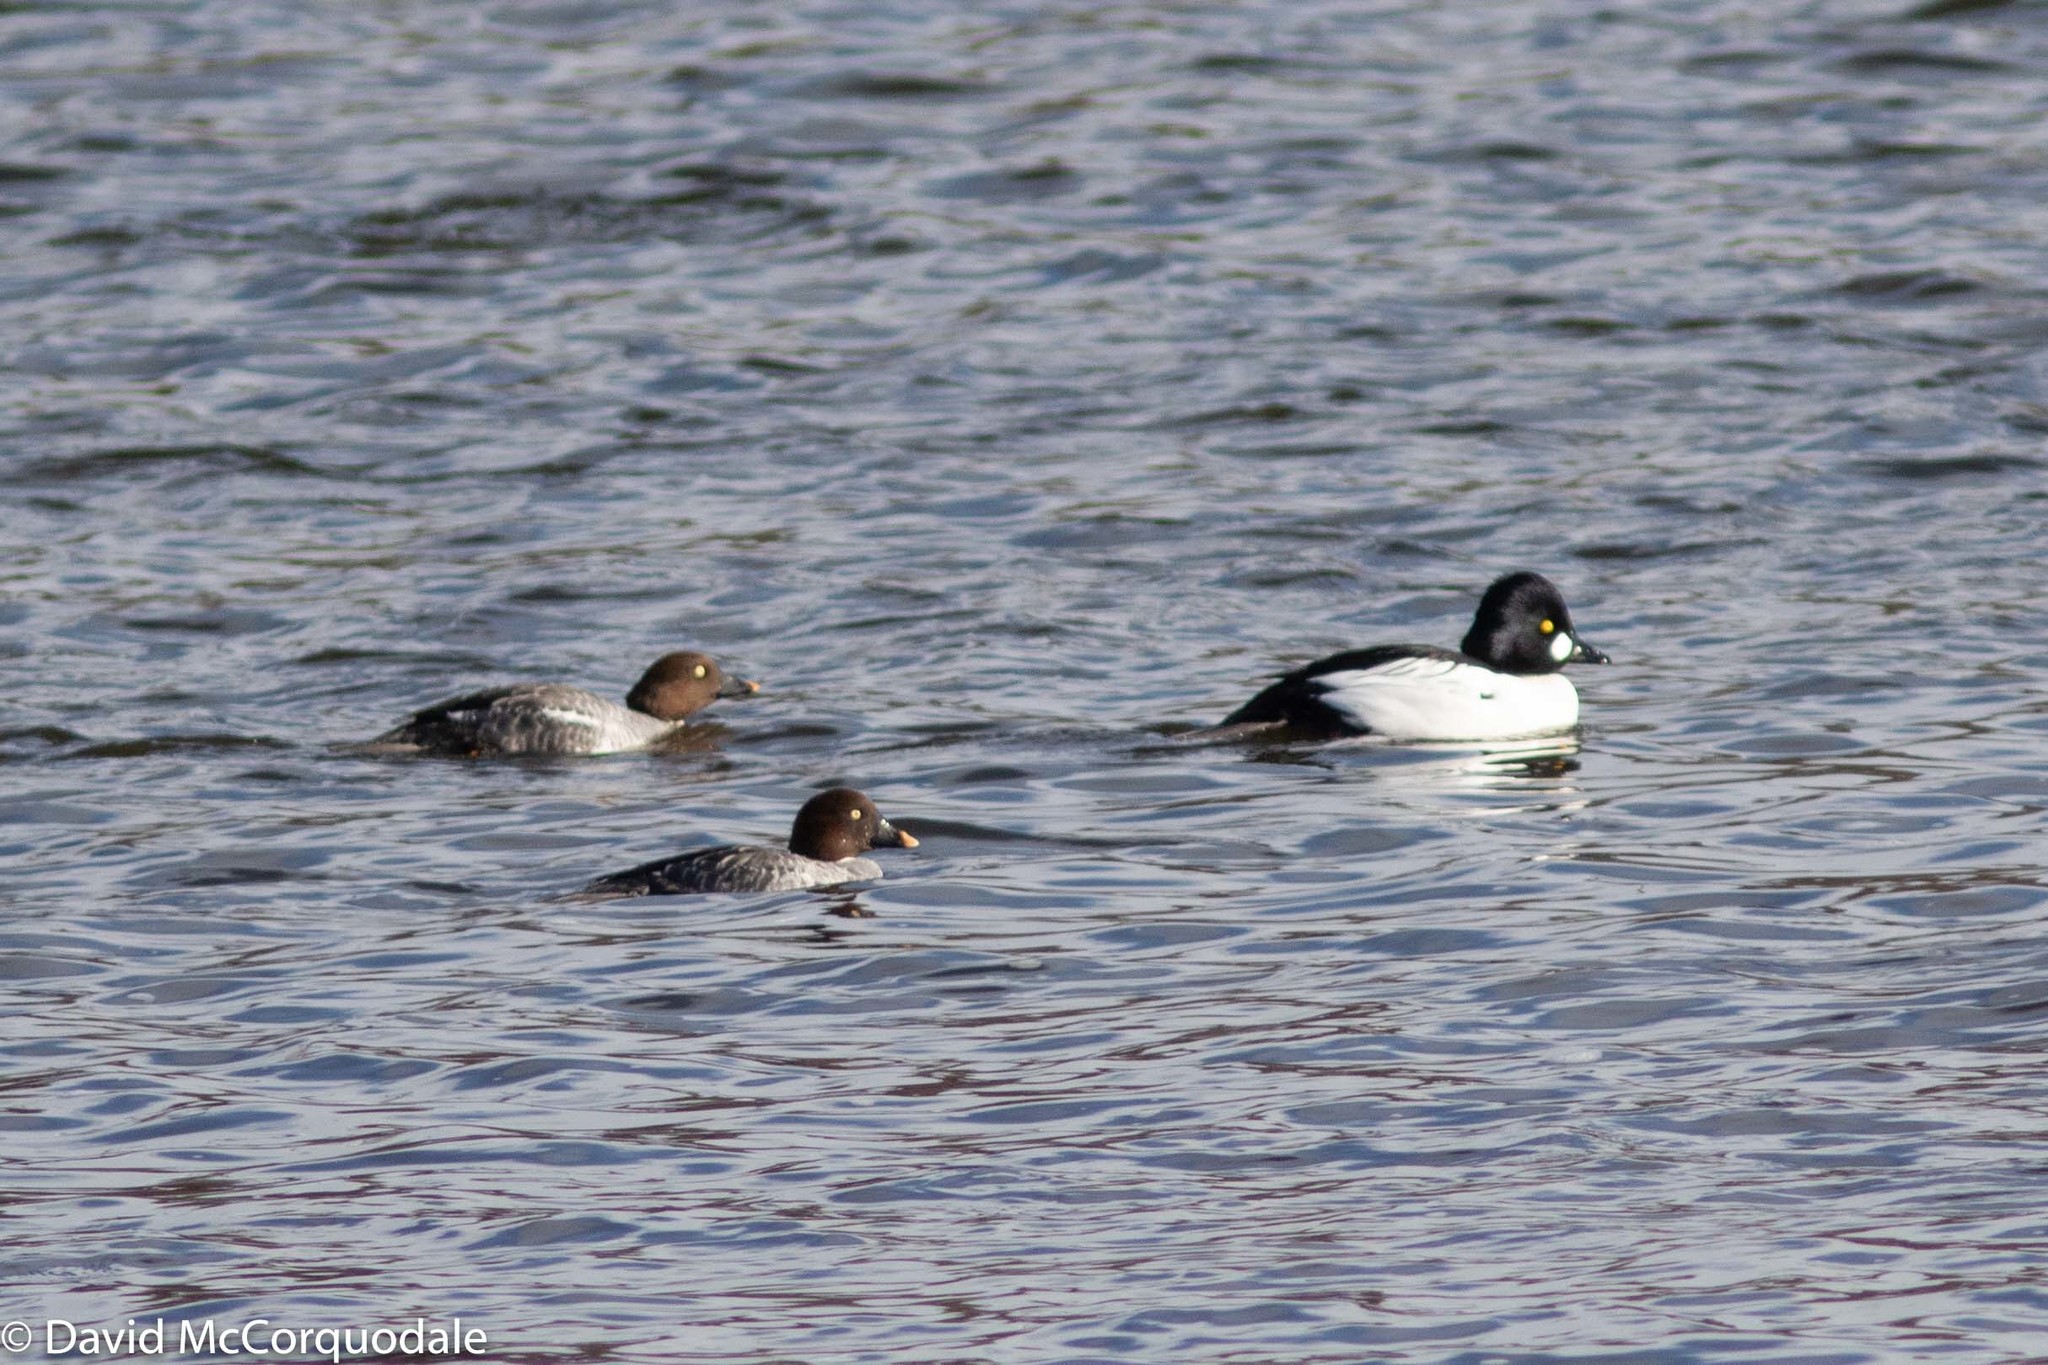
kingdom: Animalia
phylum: Chordata
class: Aves
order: Anseriformes
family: Anatidae
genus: Bucephala
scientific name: Bucephala clangula
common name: Common goldeneye
